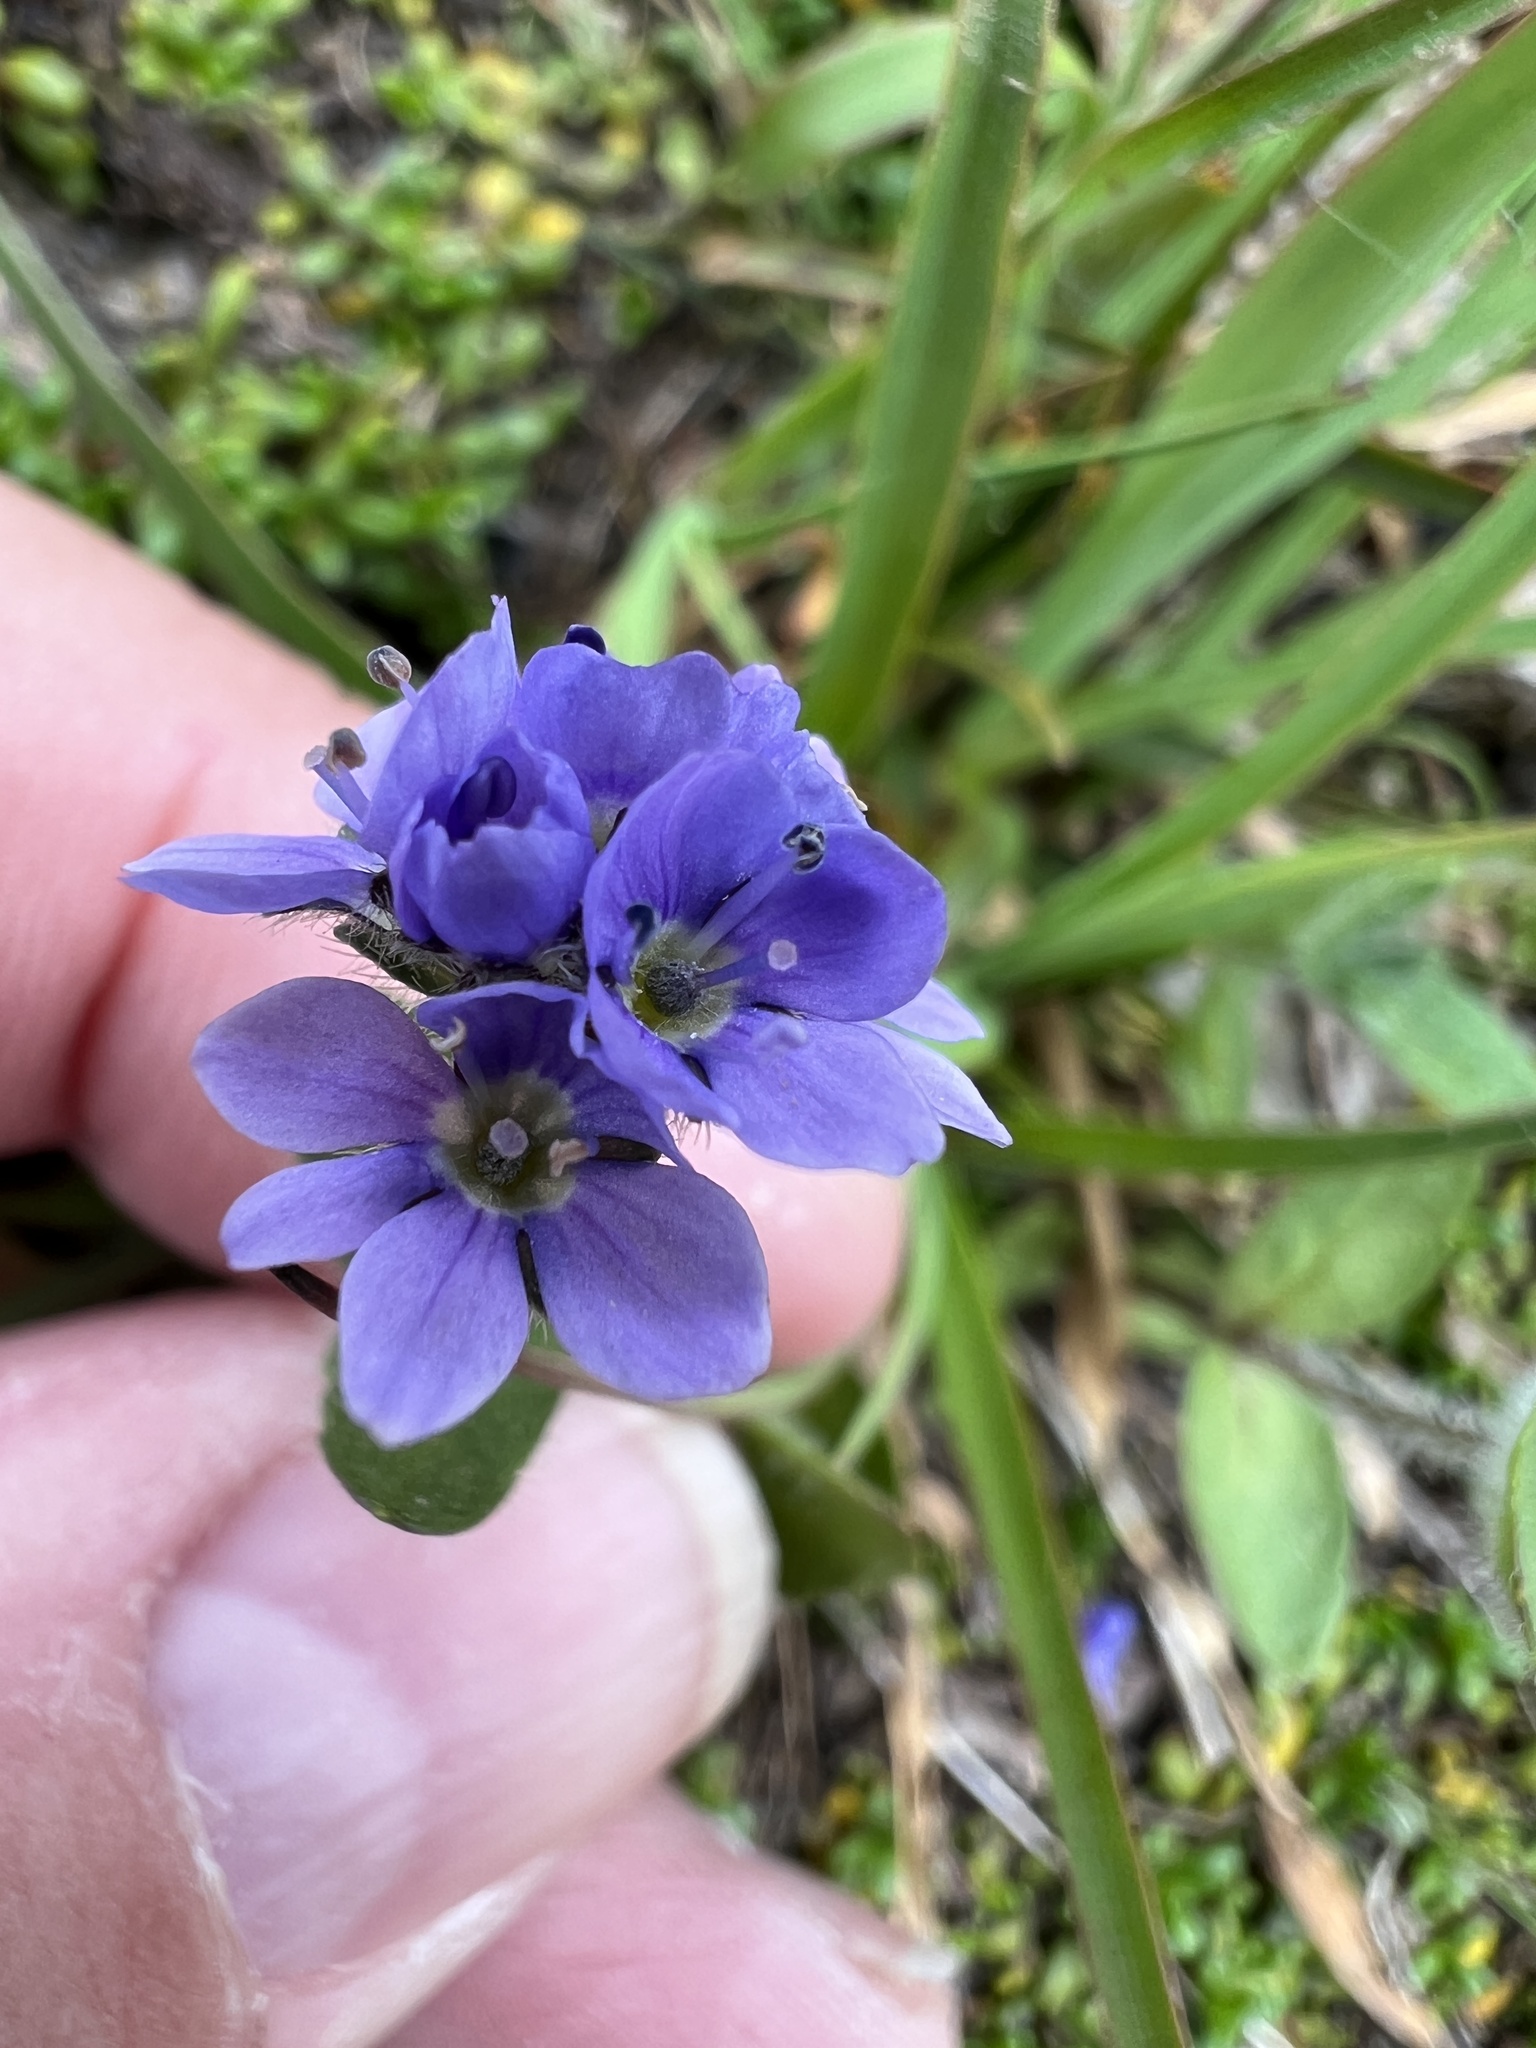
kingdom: Plantae
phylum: Tracheophyta
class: Magnoliopsida
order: Lamiales
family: Plantaginaceae
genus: Veronica
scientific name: Veronica wormskjoldii
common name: American alpine speedwell
